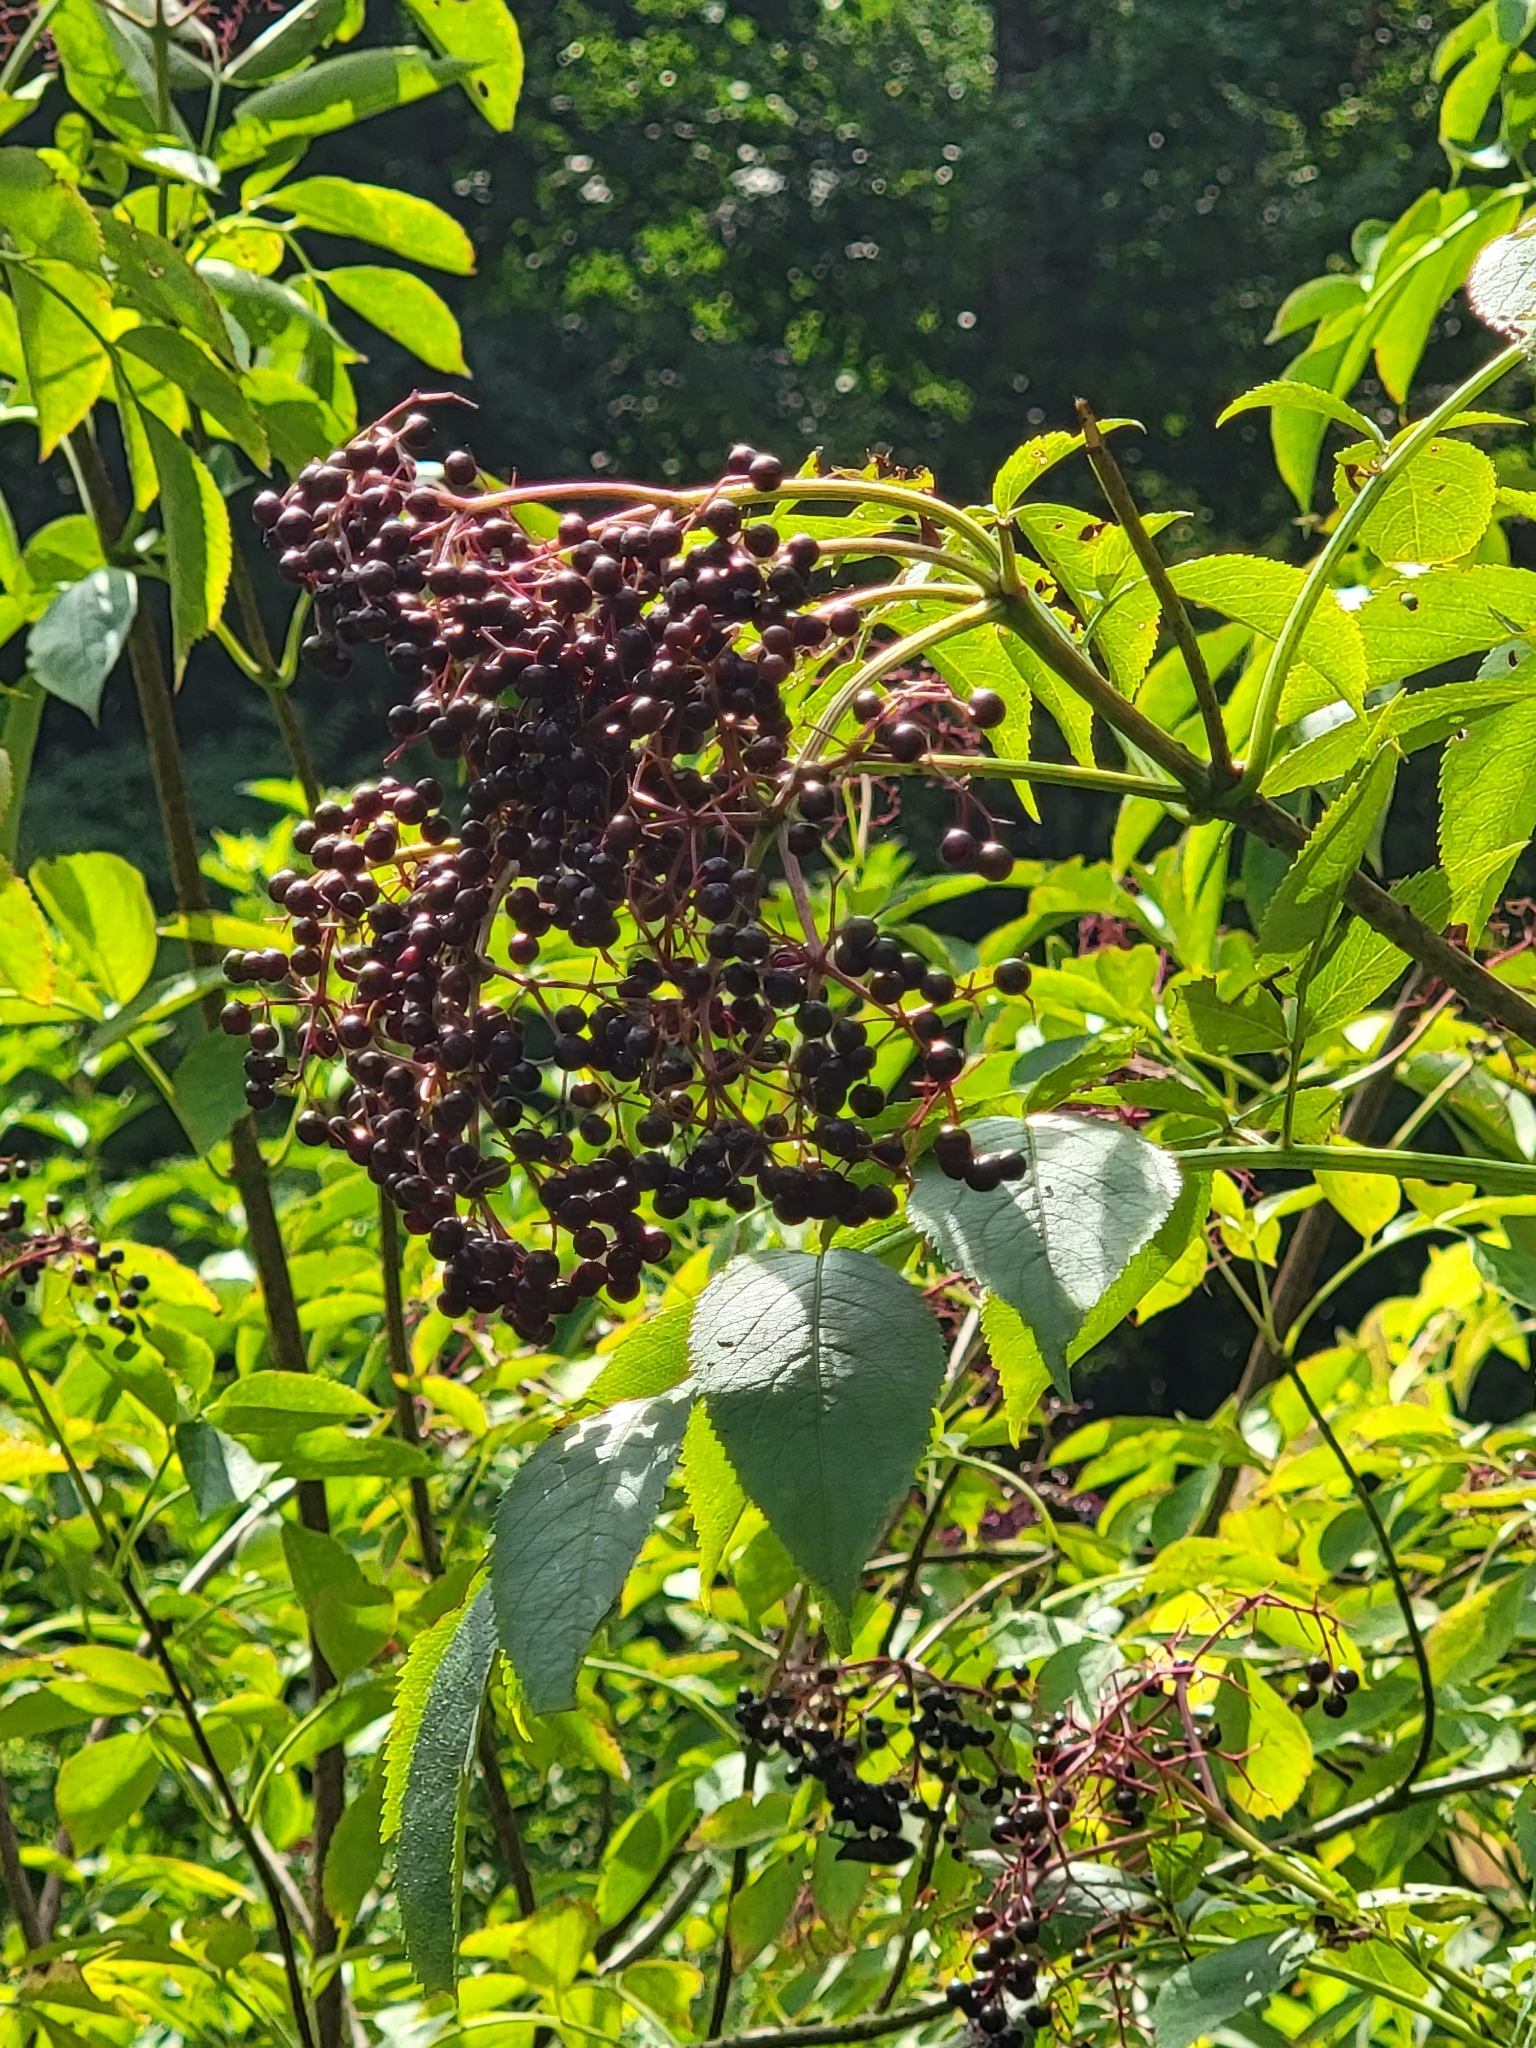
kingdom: Plantae
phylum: Tracheophyta
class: Magnoliopsida
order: Dipsacales
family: Viburnaceae
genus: Sambucus
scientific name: Sambucus canadensis
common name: American elder
